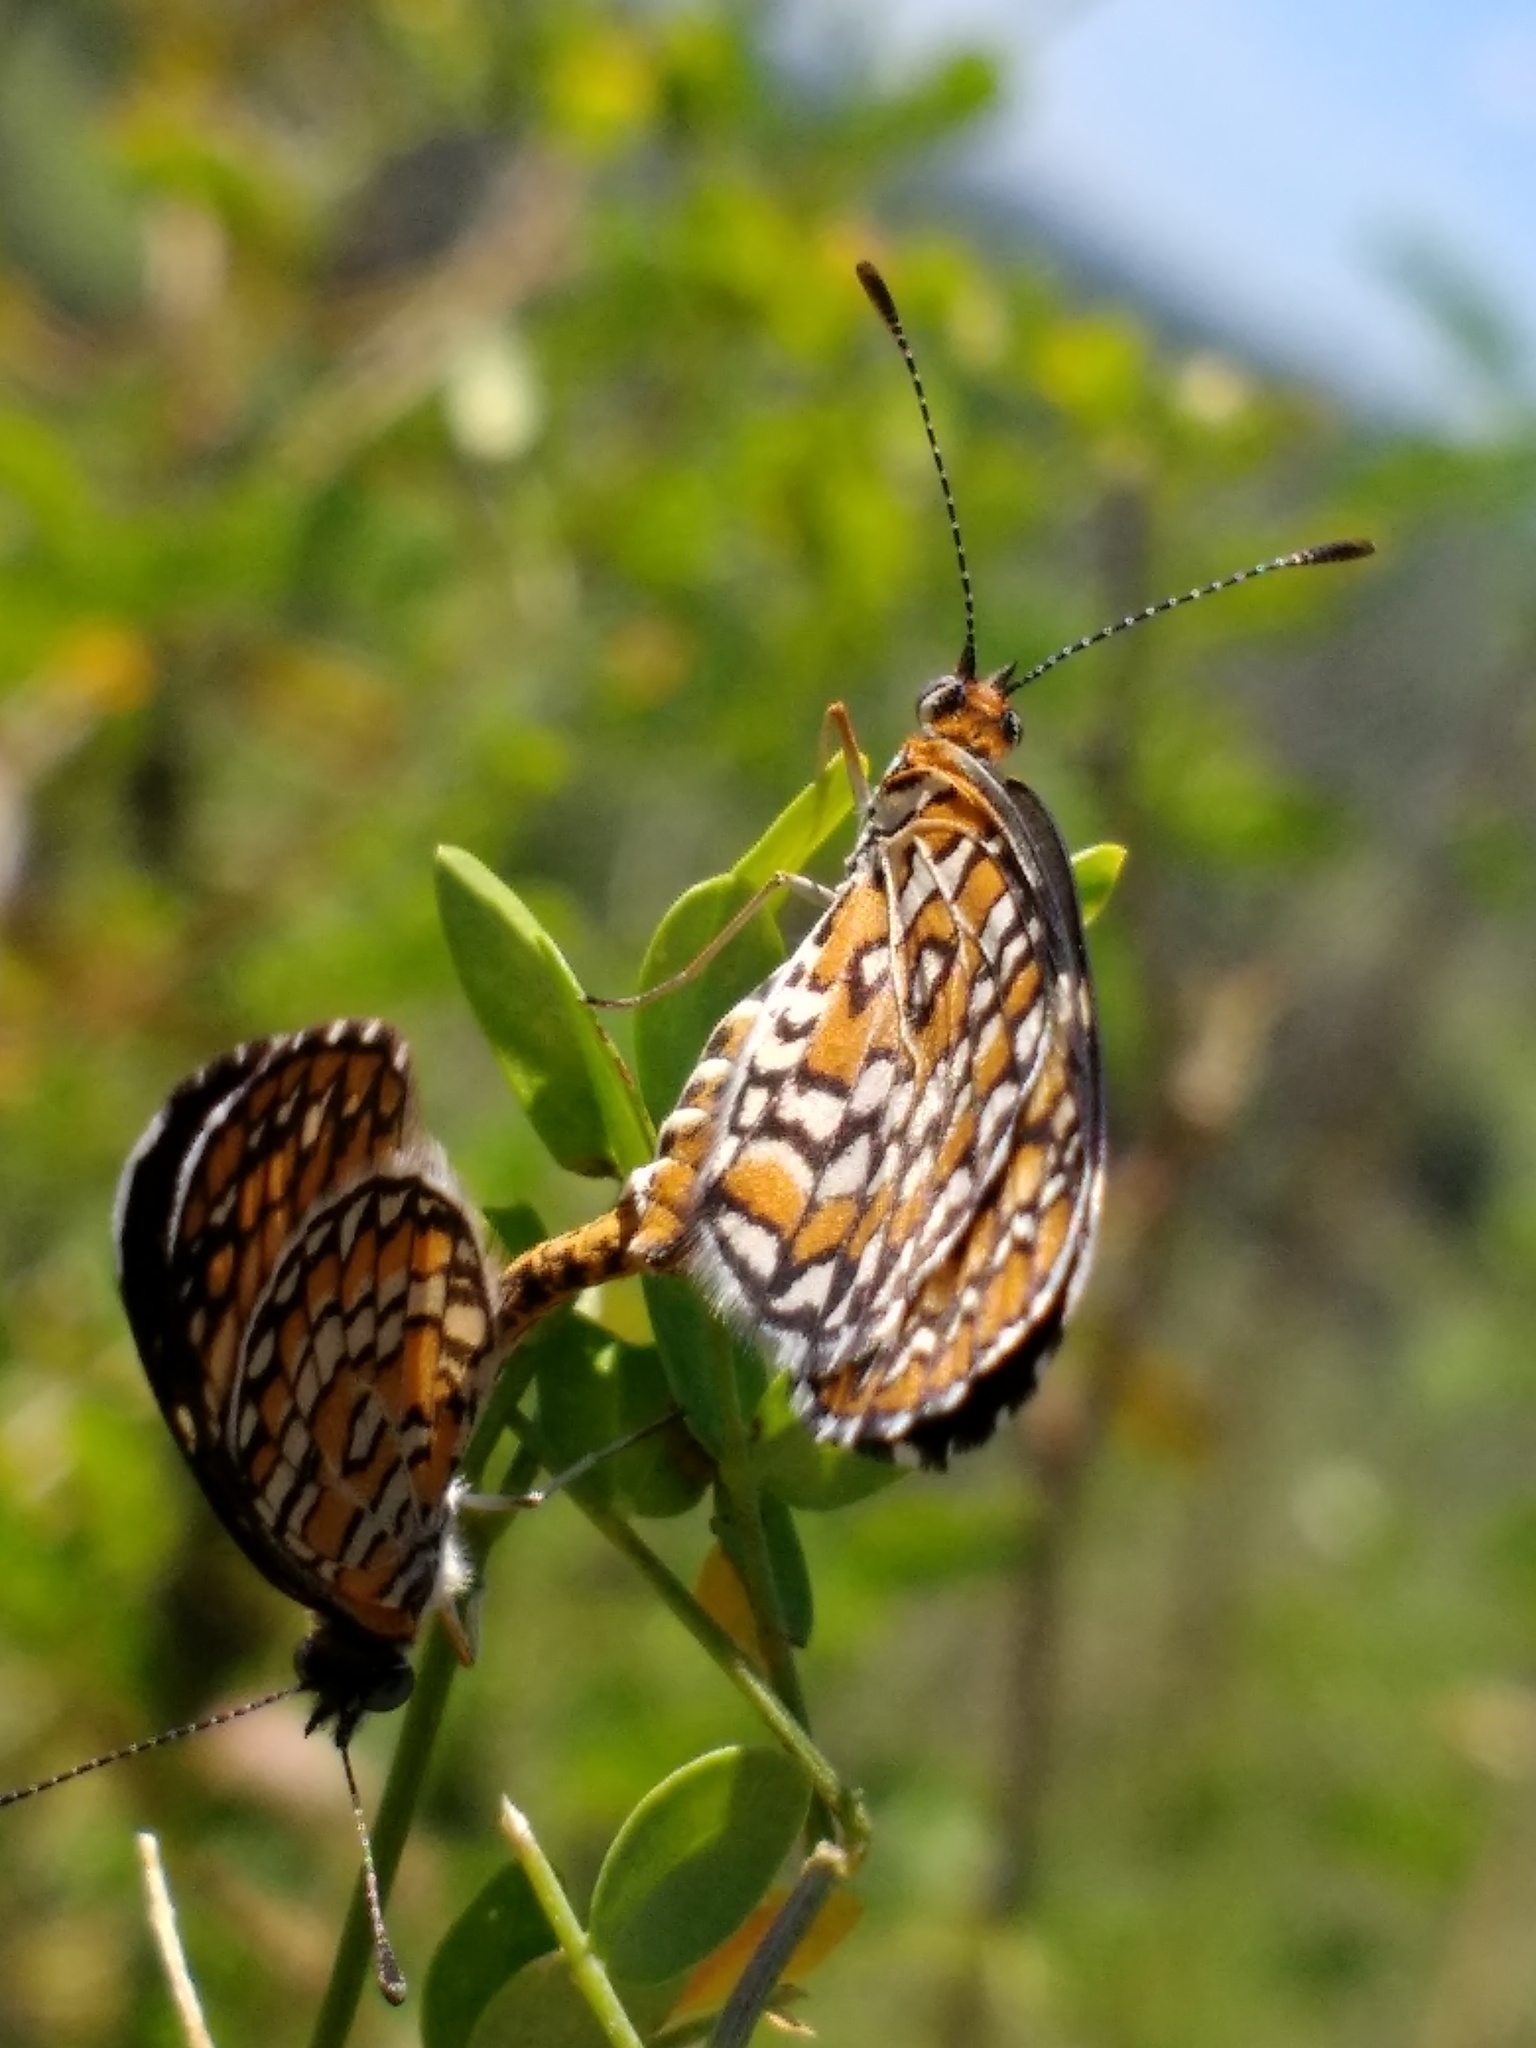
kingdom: Animalia
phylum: Arthropoda
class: Insecta
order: Lepidoptera
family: Nymphalidae
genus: Dymasia
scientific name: Dymasia dymas
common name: Tiny checkerspot
